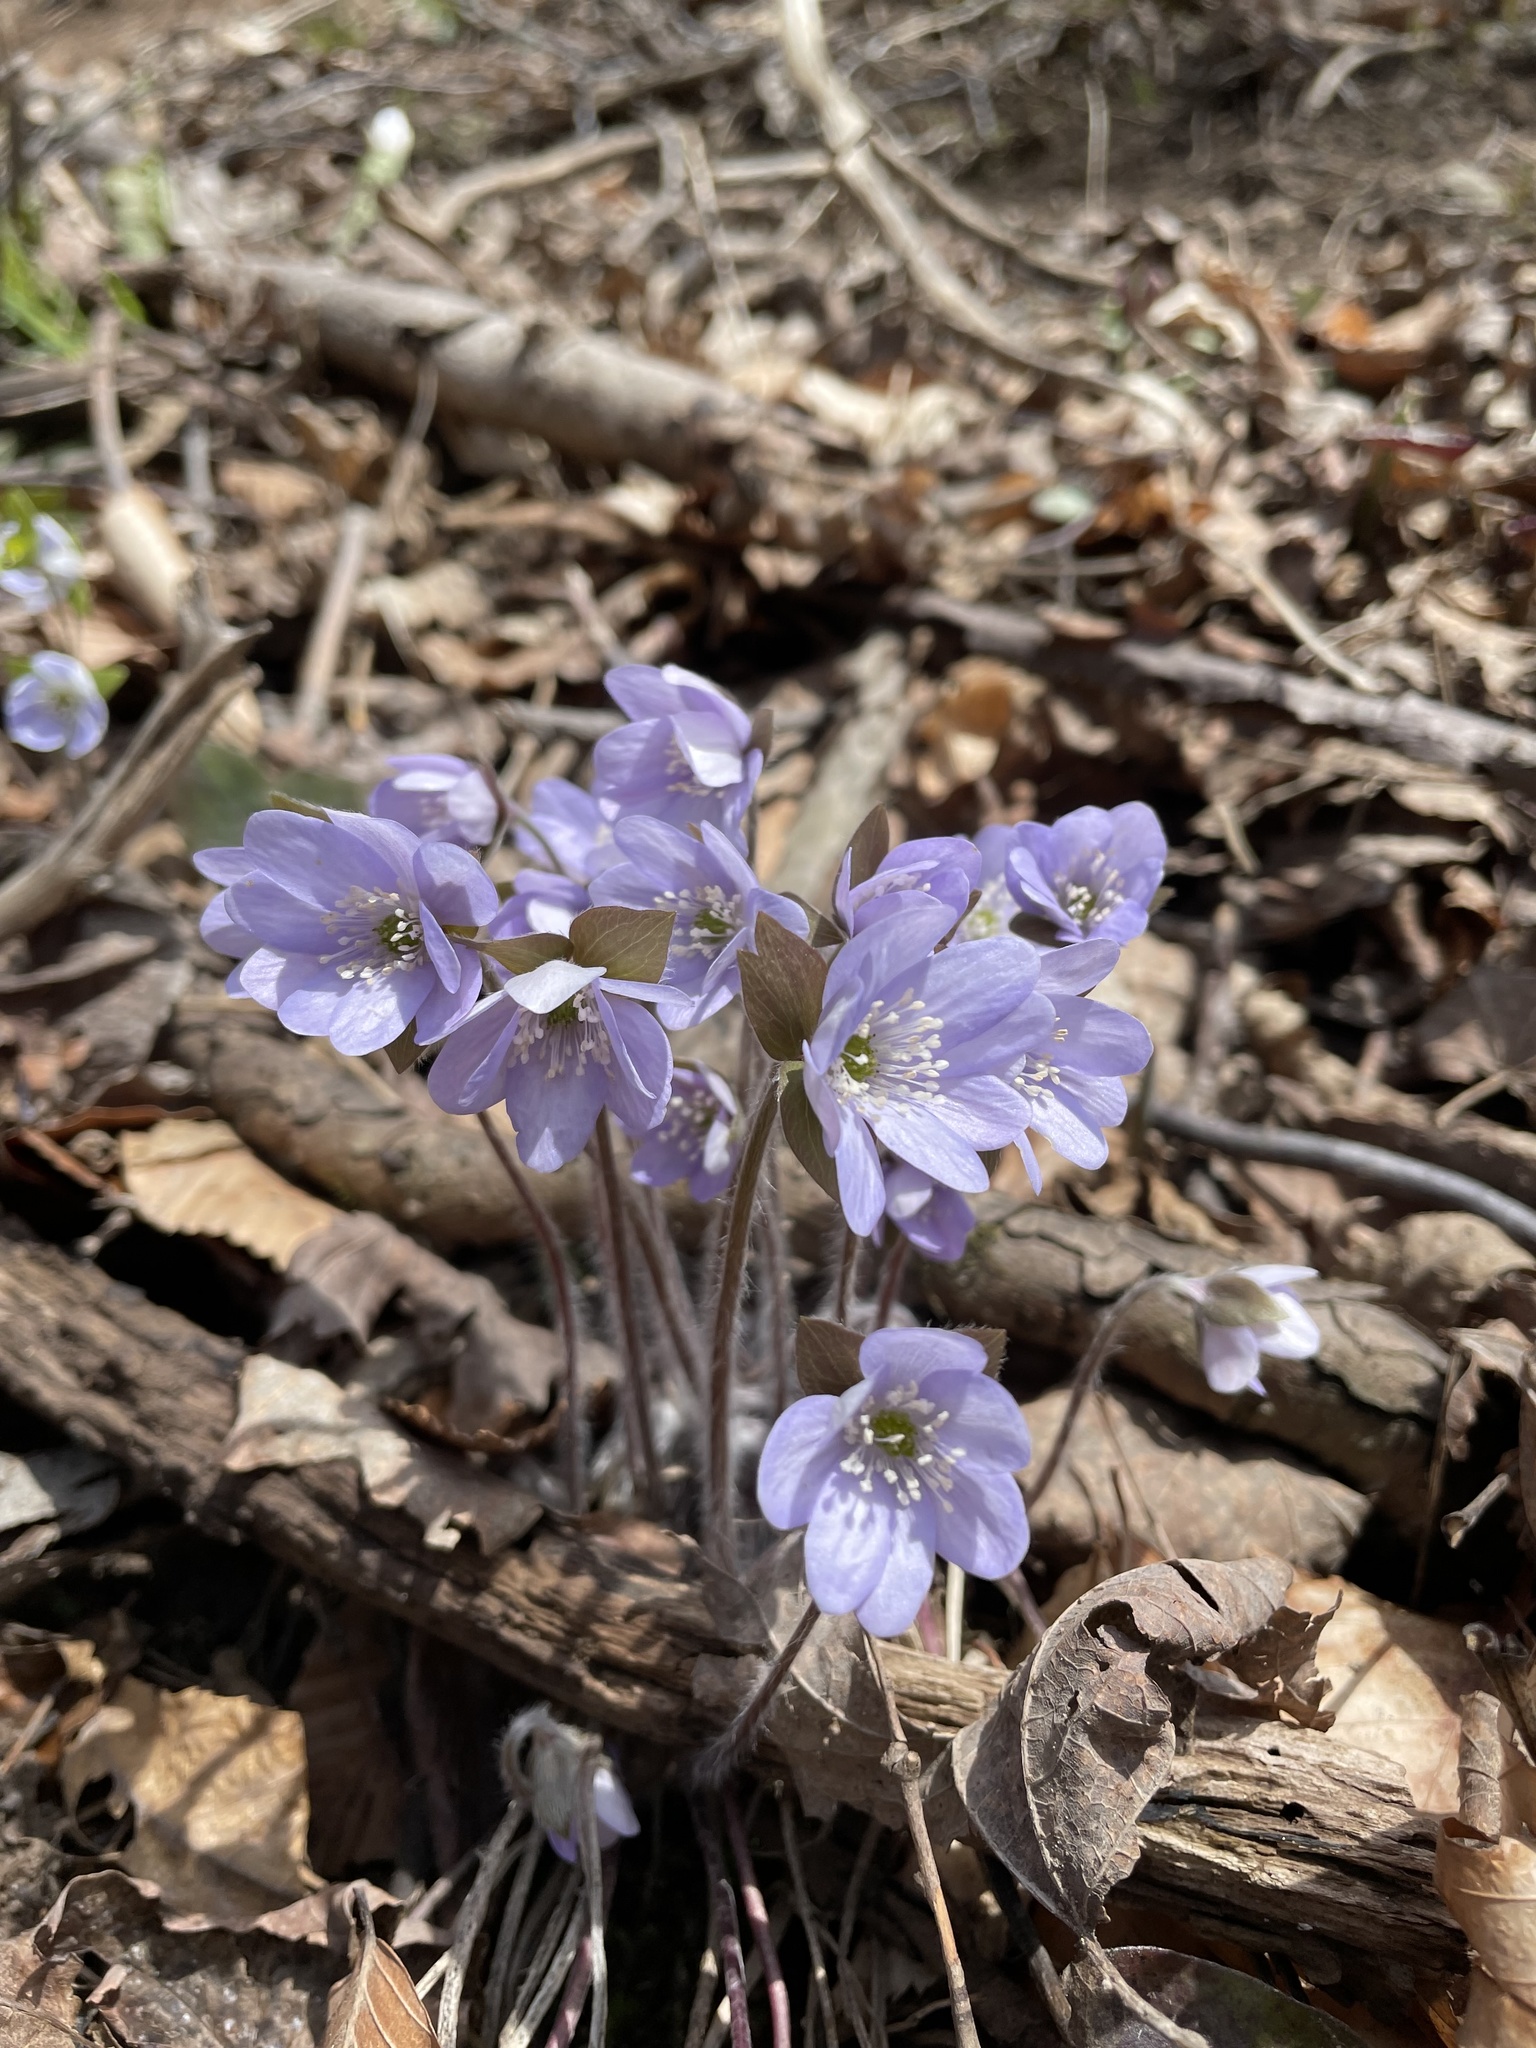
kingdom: Plantae
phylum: Tracheophyta
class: Magnoliopsida
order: Ranunculales
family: Ranunculaceae
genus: Hepatica
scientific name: Hepatica acutiloba
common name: Sharp-lobed hepatica
